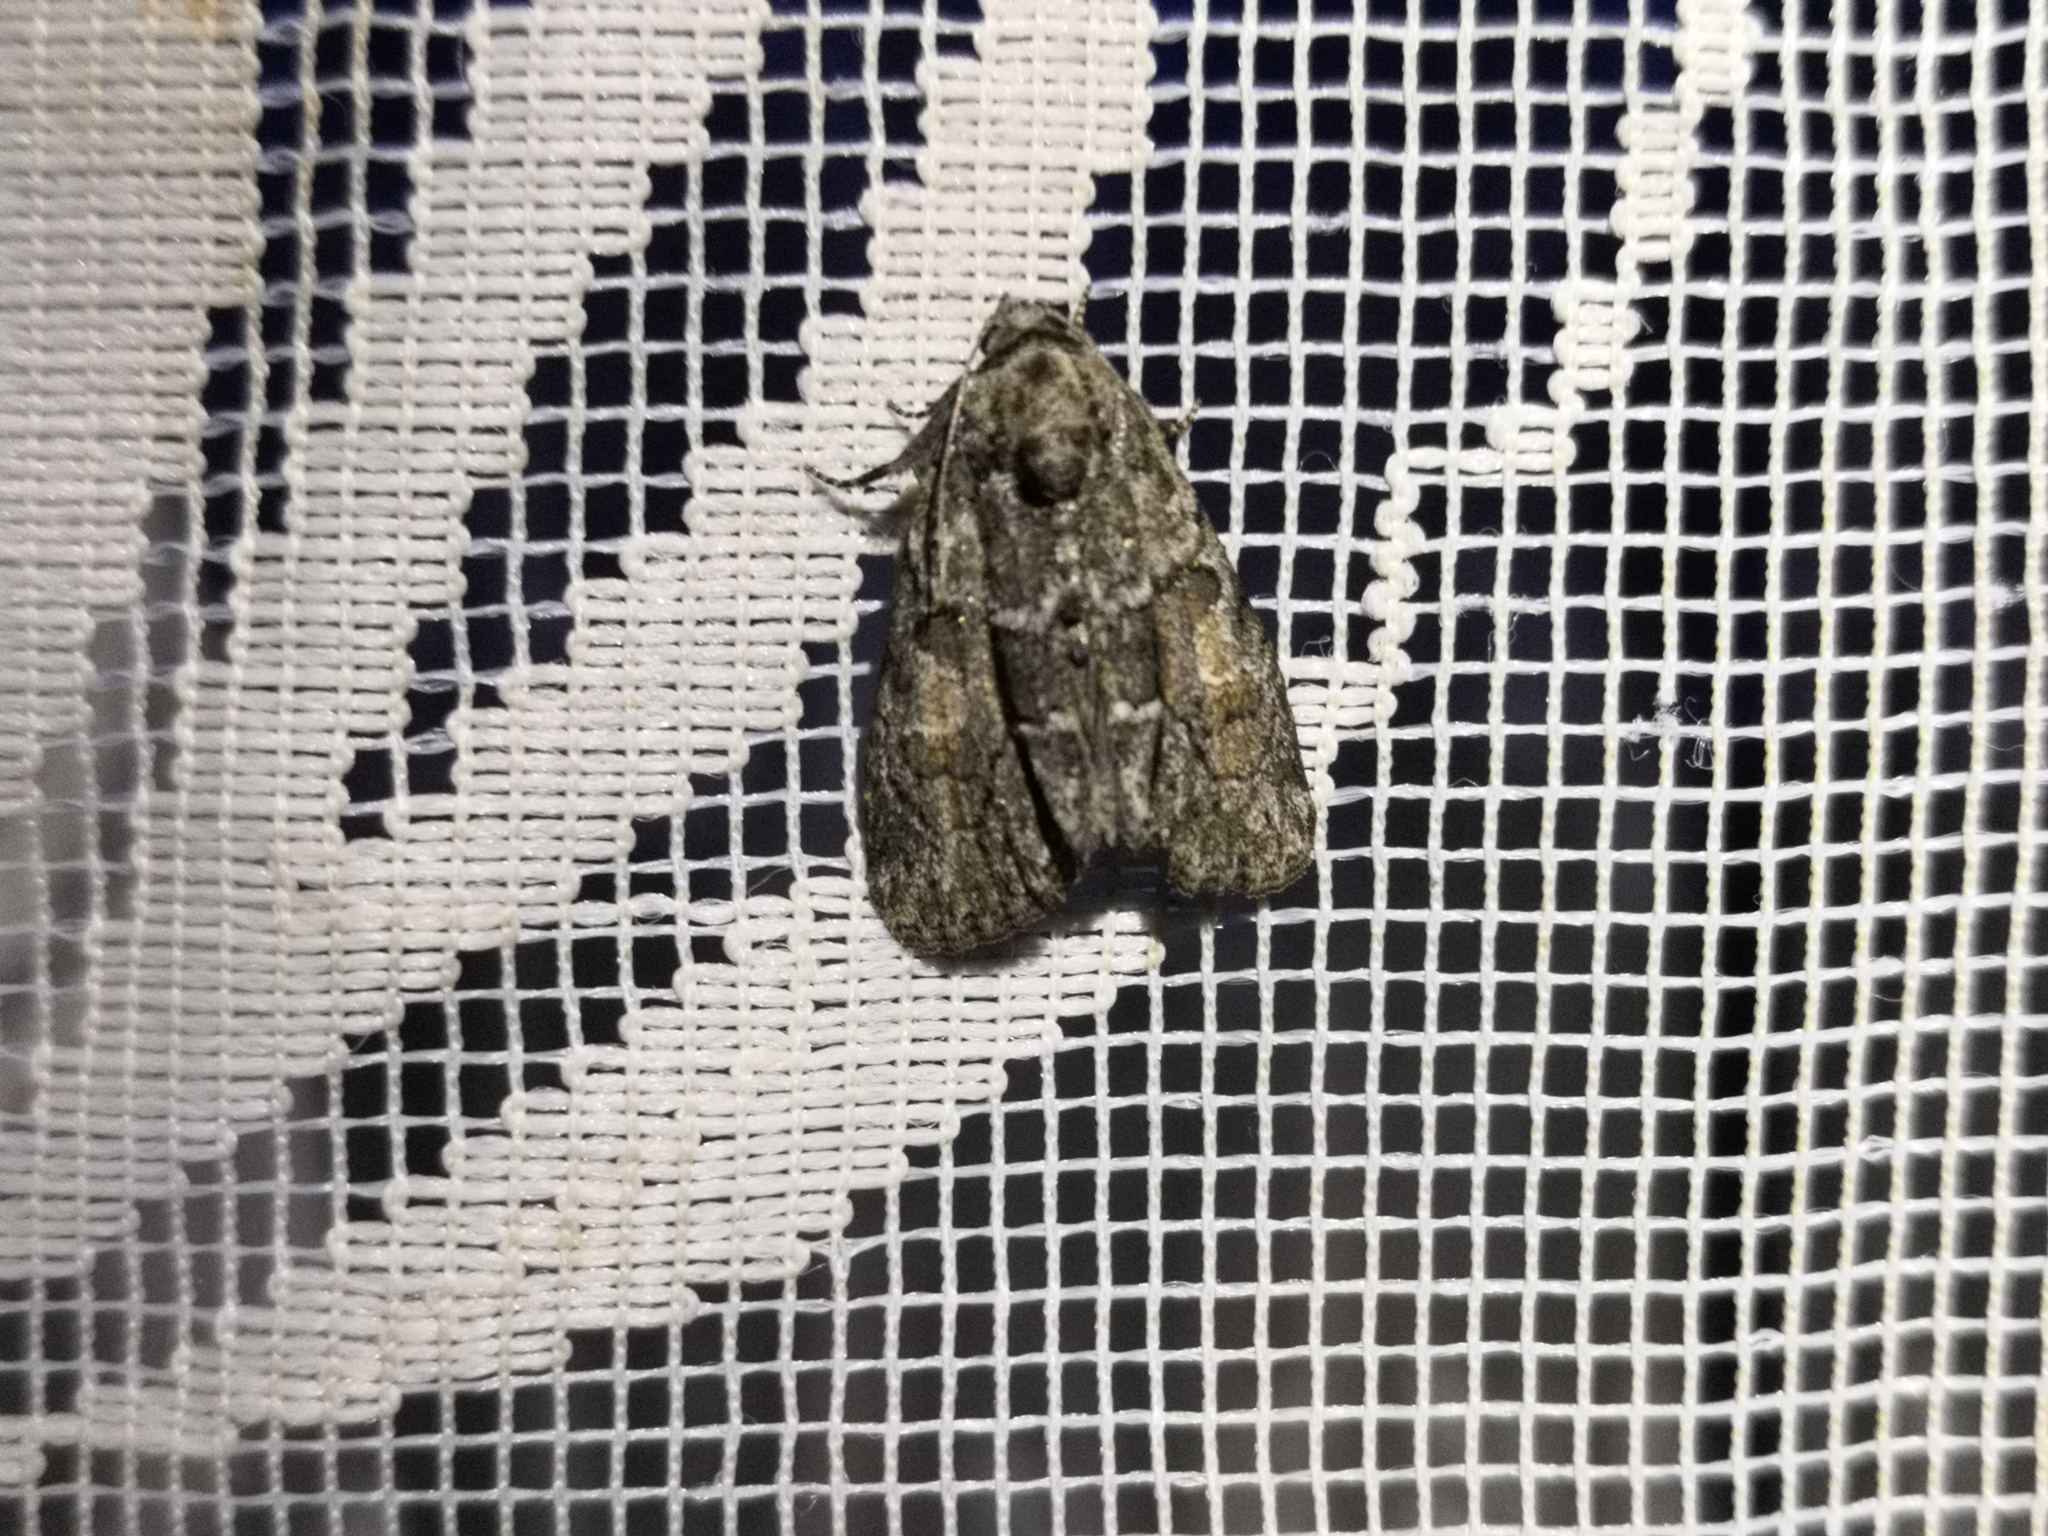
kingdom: Animalia
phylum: Arthropoda
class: Insecta
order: Lepidoptera
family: Noctuidae
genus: Cryphia
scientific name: Cryphia fraudatricula
